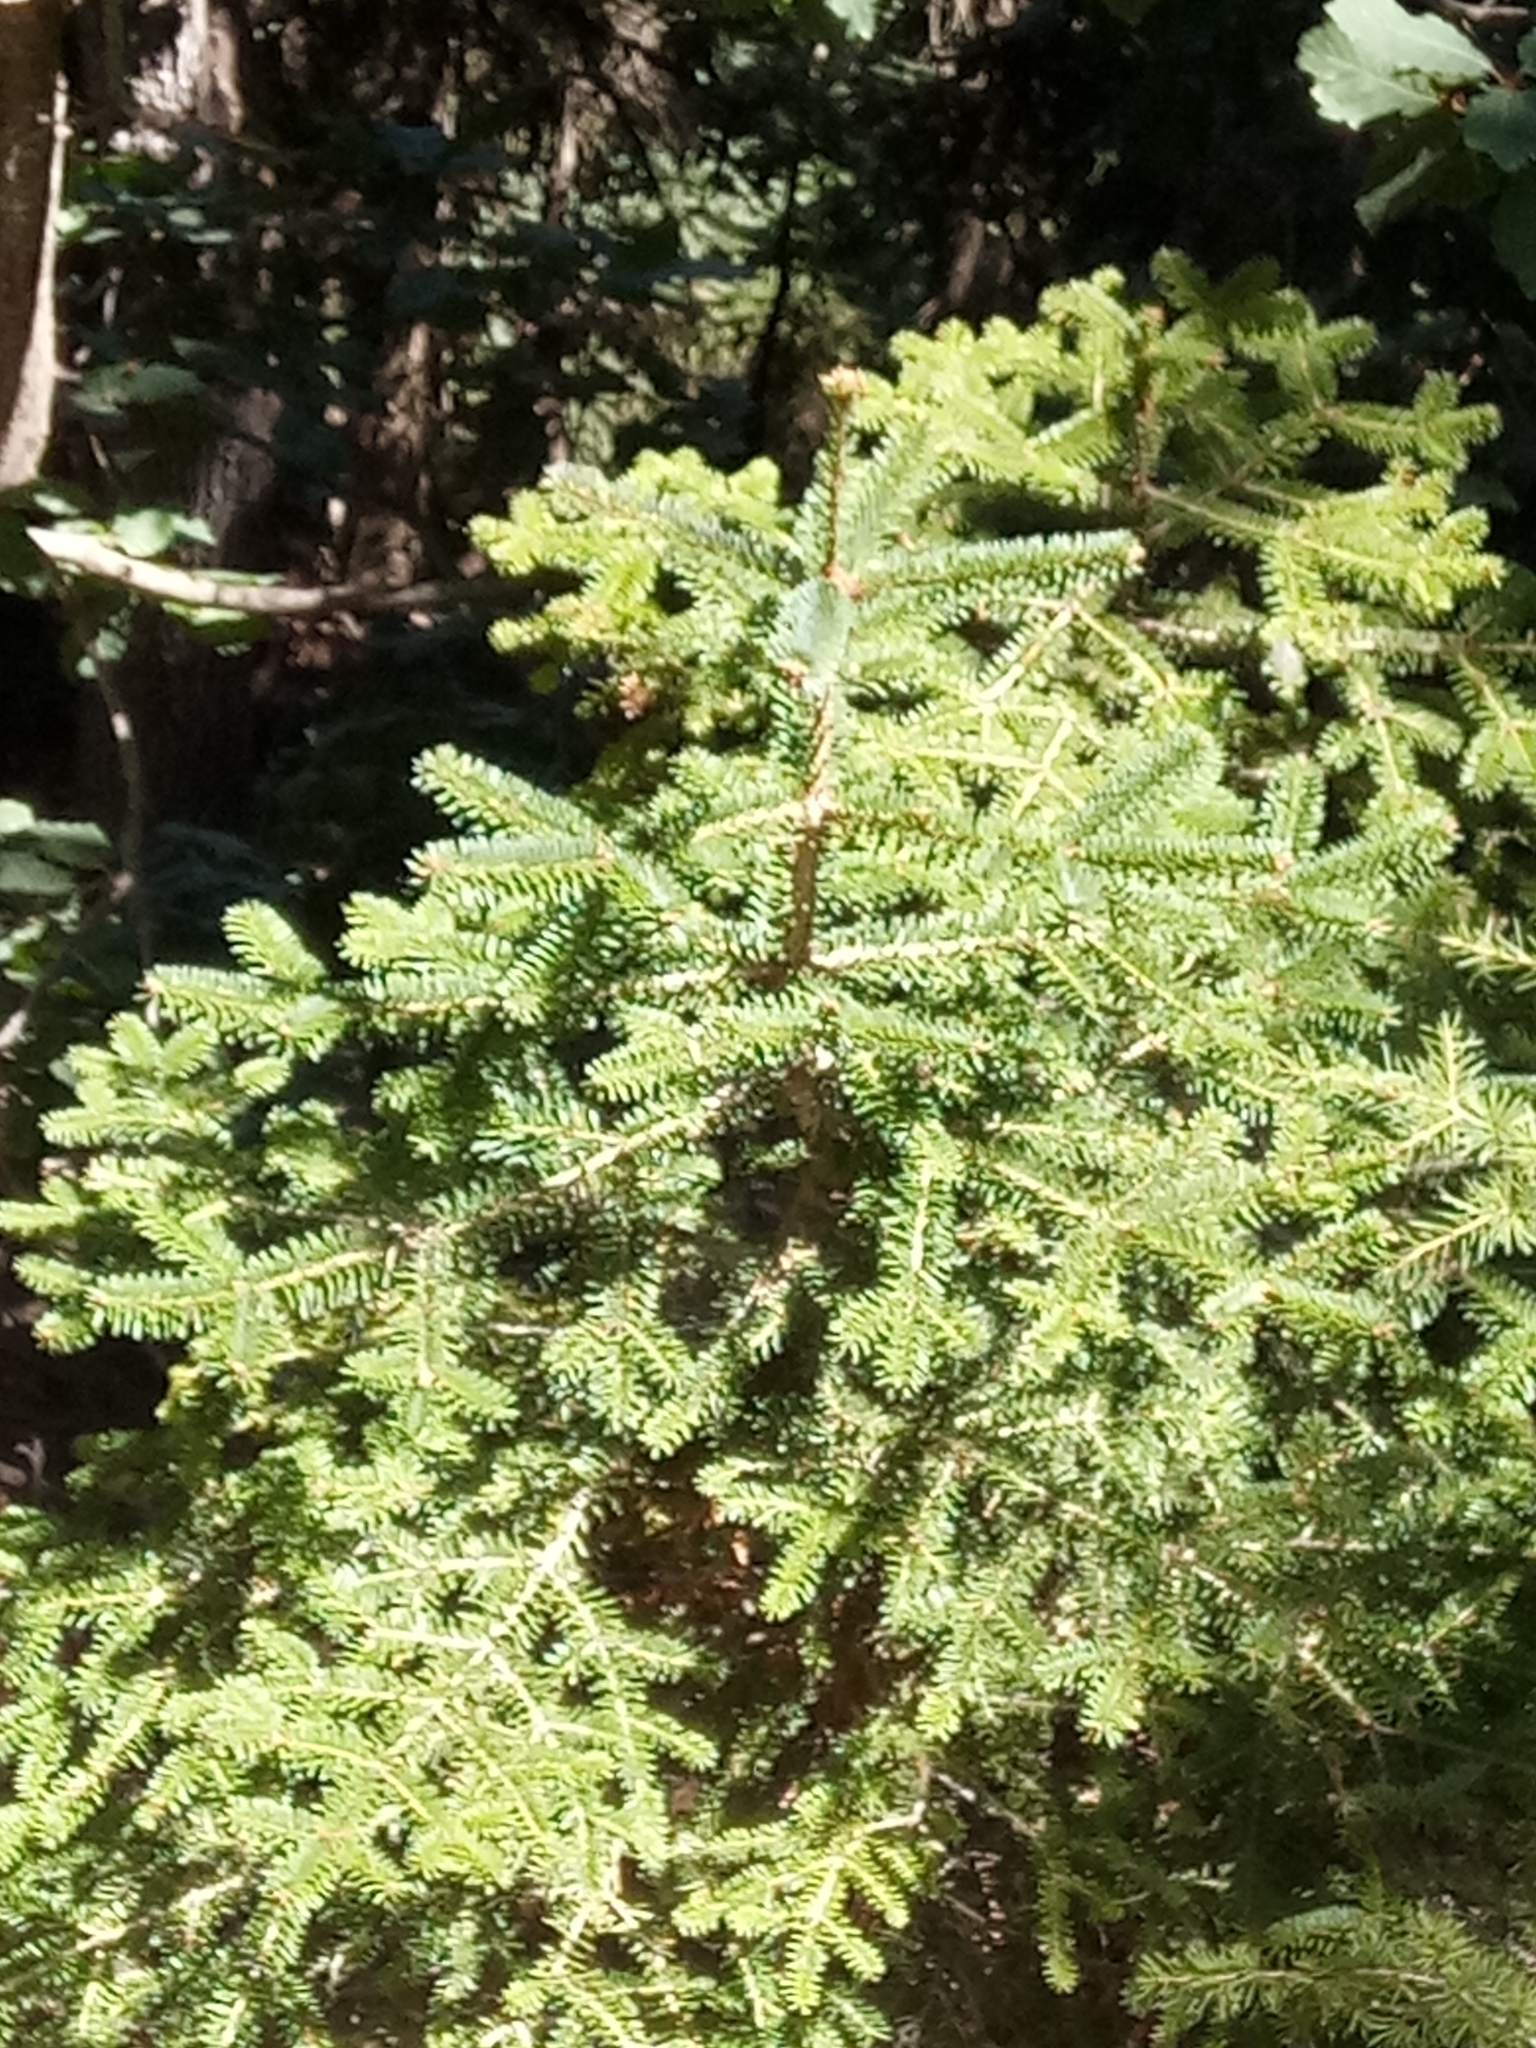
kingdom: Plantae
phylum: Tracheophyta
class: Pinopsida
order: Pinales
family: Pinaceae
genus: Abies
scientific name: Abies numidica
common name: Algerian fir
